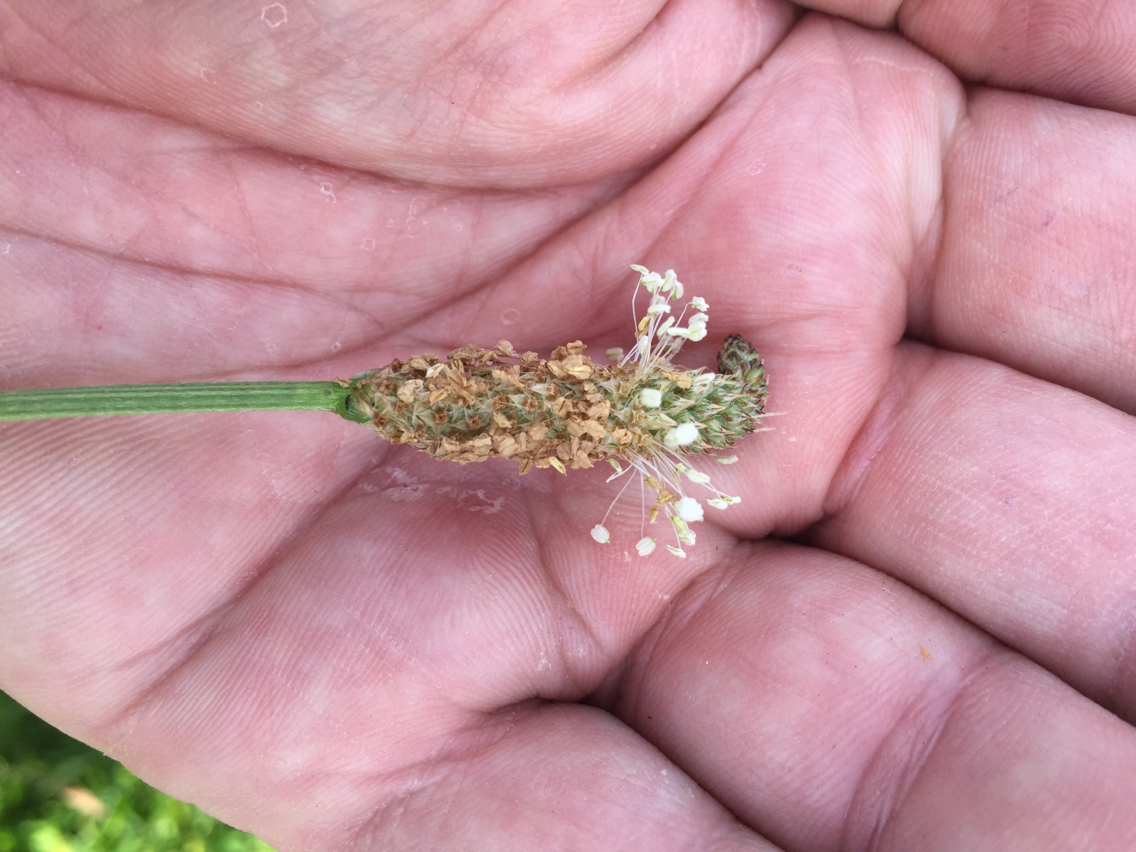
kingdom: Plantae
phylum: Tracheophyta
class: Magnoliopsida
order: Lamiales
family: Plantaginaceae
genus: Plantago
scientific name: Plantago lanceolata
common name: Ribwort plantain
